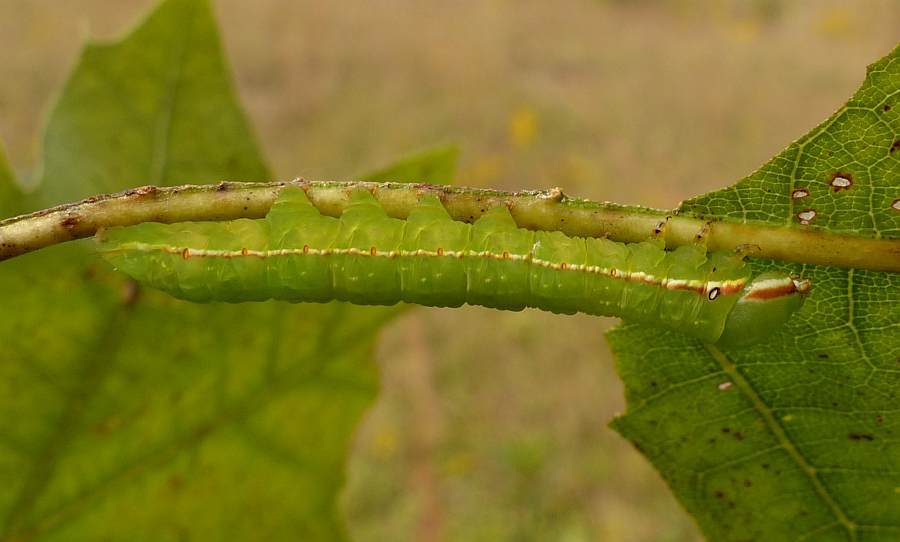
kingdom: Animalia
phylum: Arthropoda
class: Insecta
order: Lepidoptera
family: Notodontidae
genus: Peridea
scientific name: Peridea angulosa
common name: Angulose prominent
